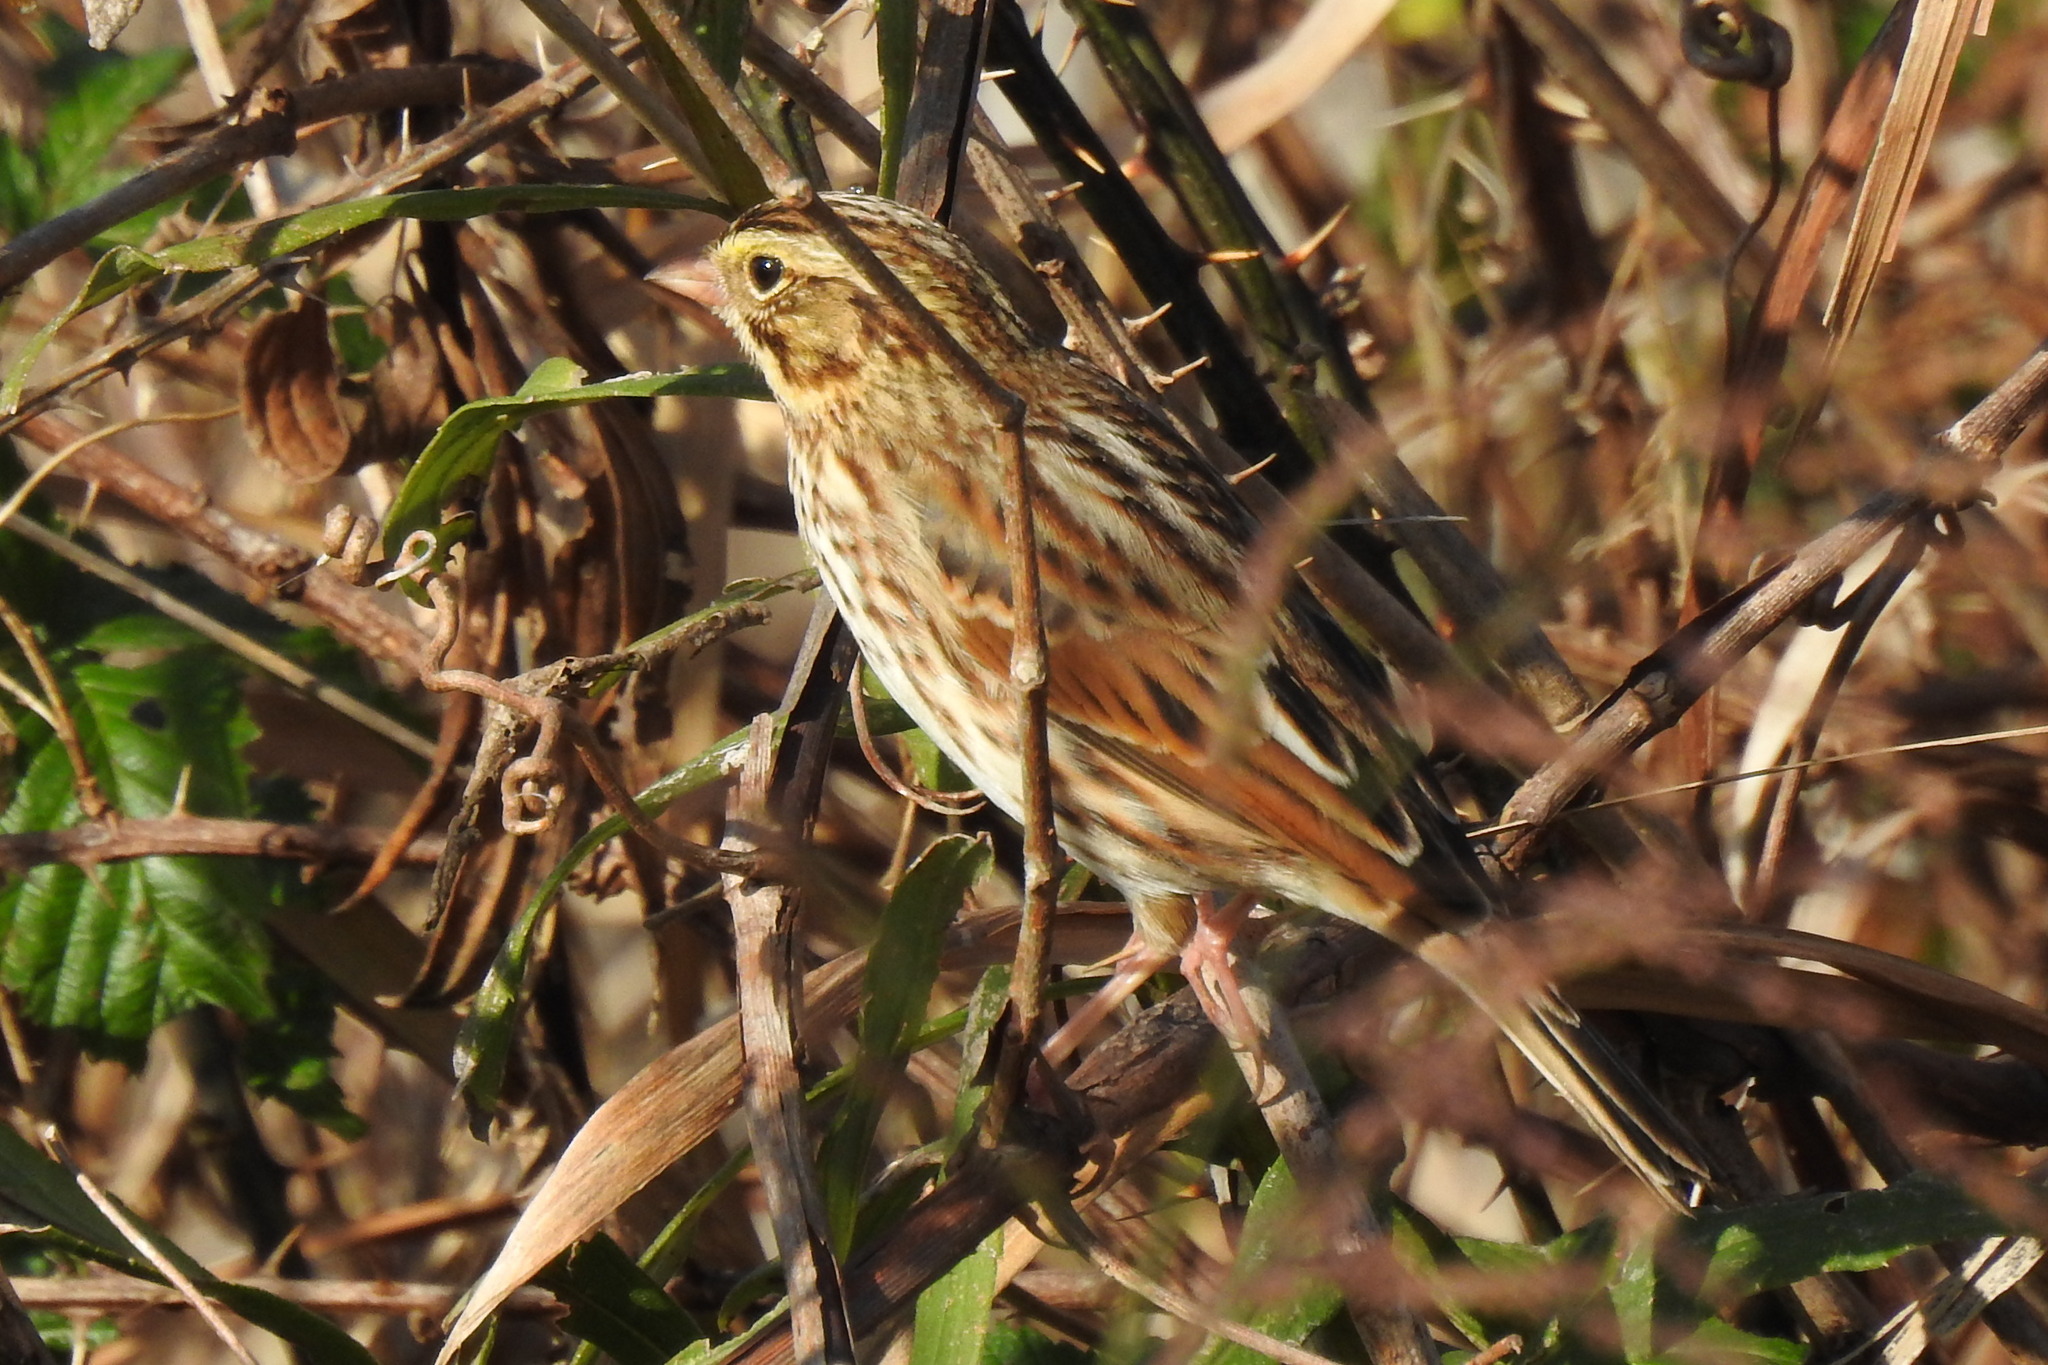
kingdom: Animalia
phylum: Chordata
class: Aves
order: Passeriformes
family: Passerellidae
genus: Passerculus
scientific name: Passerculus sandwichensis
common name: Savannah sparrow
